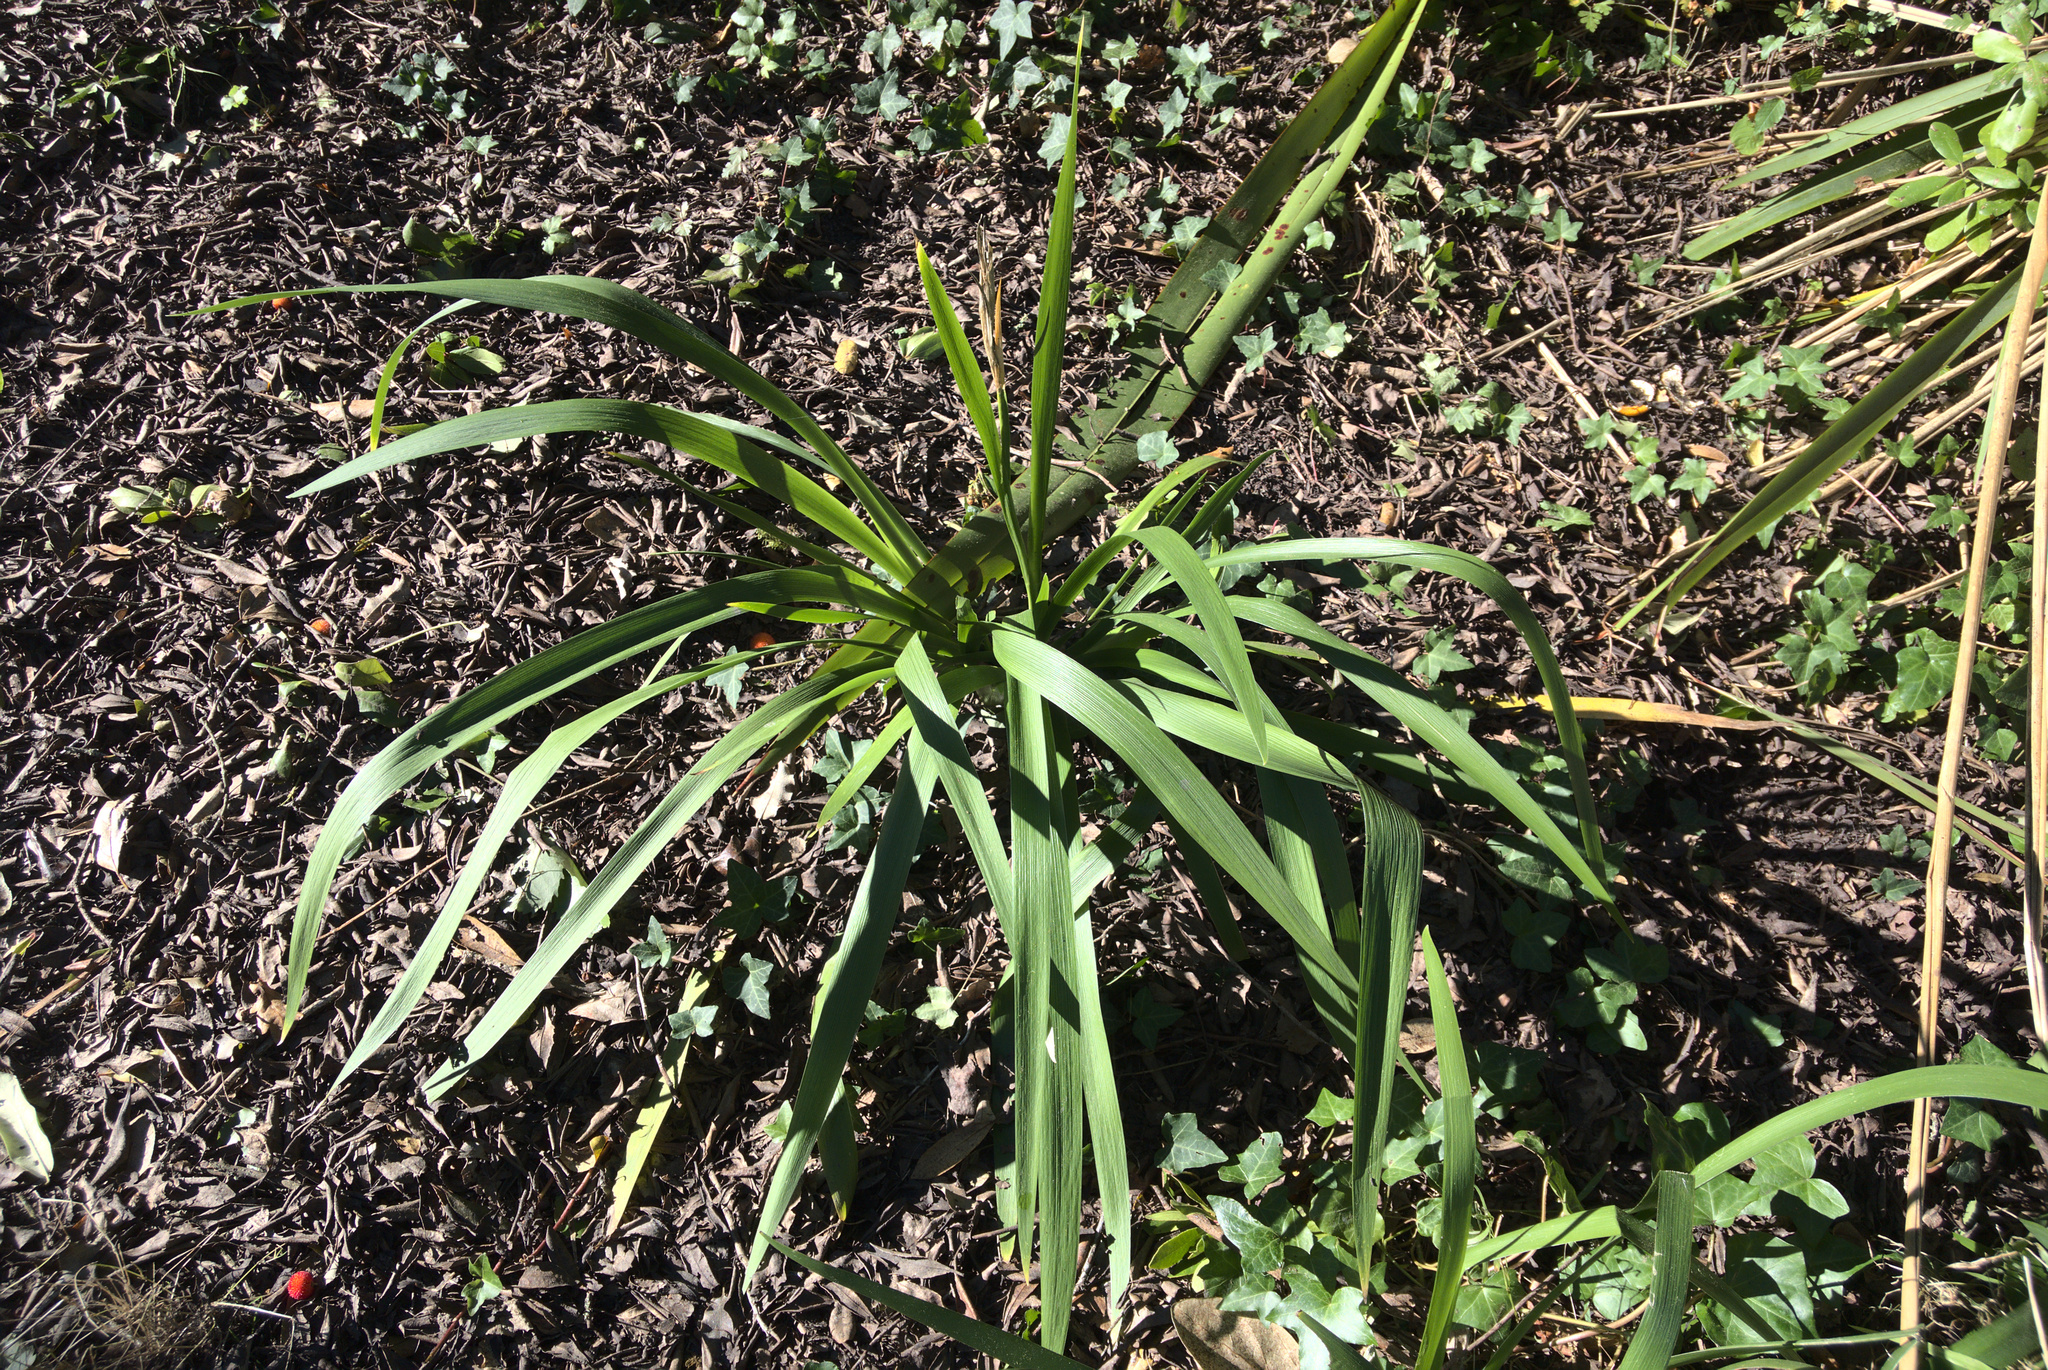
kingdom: Plantae
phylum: Tracheophyta
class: Liliopsida
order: Asparagales
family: Iridaceae
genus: Iris
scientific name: Iris foetidissima
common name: Stinking iris
